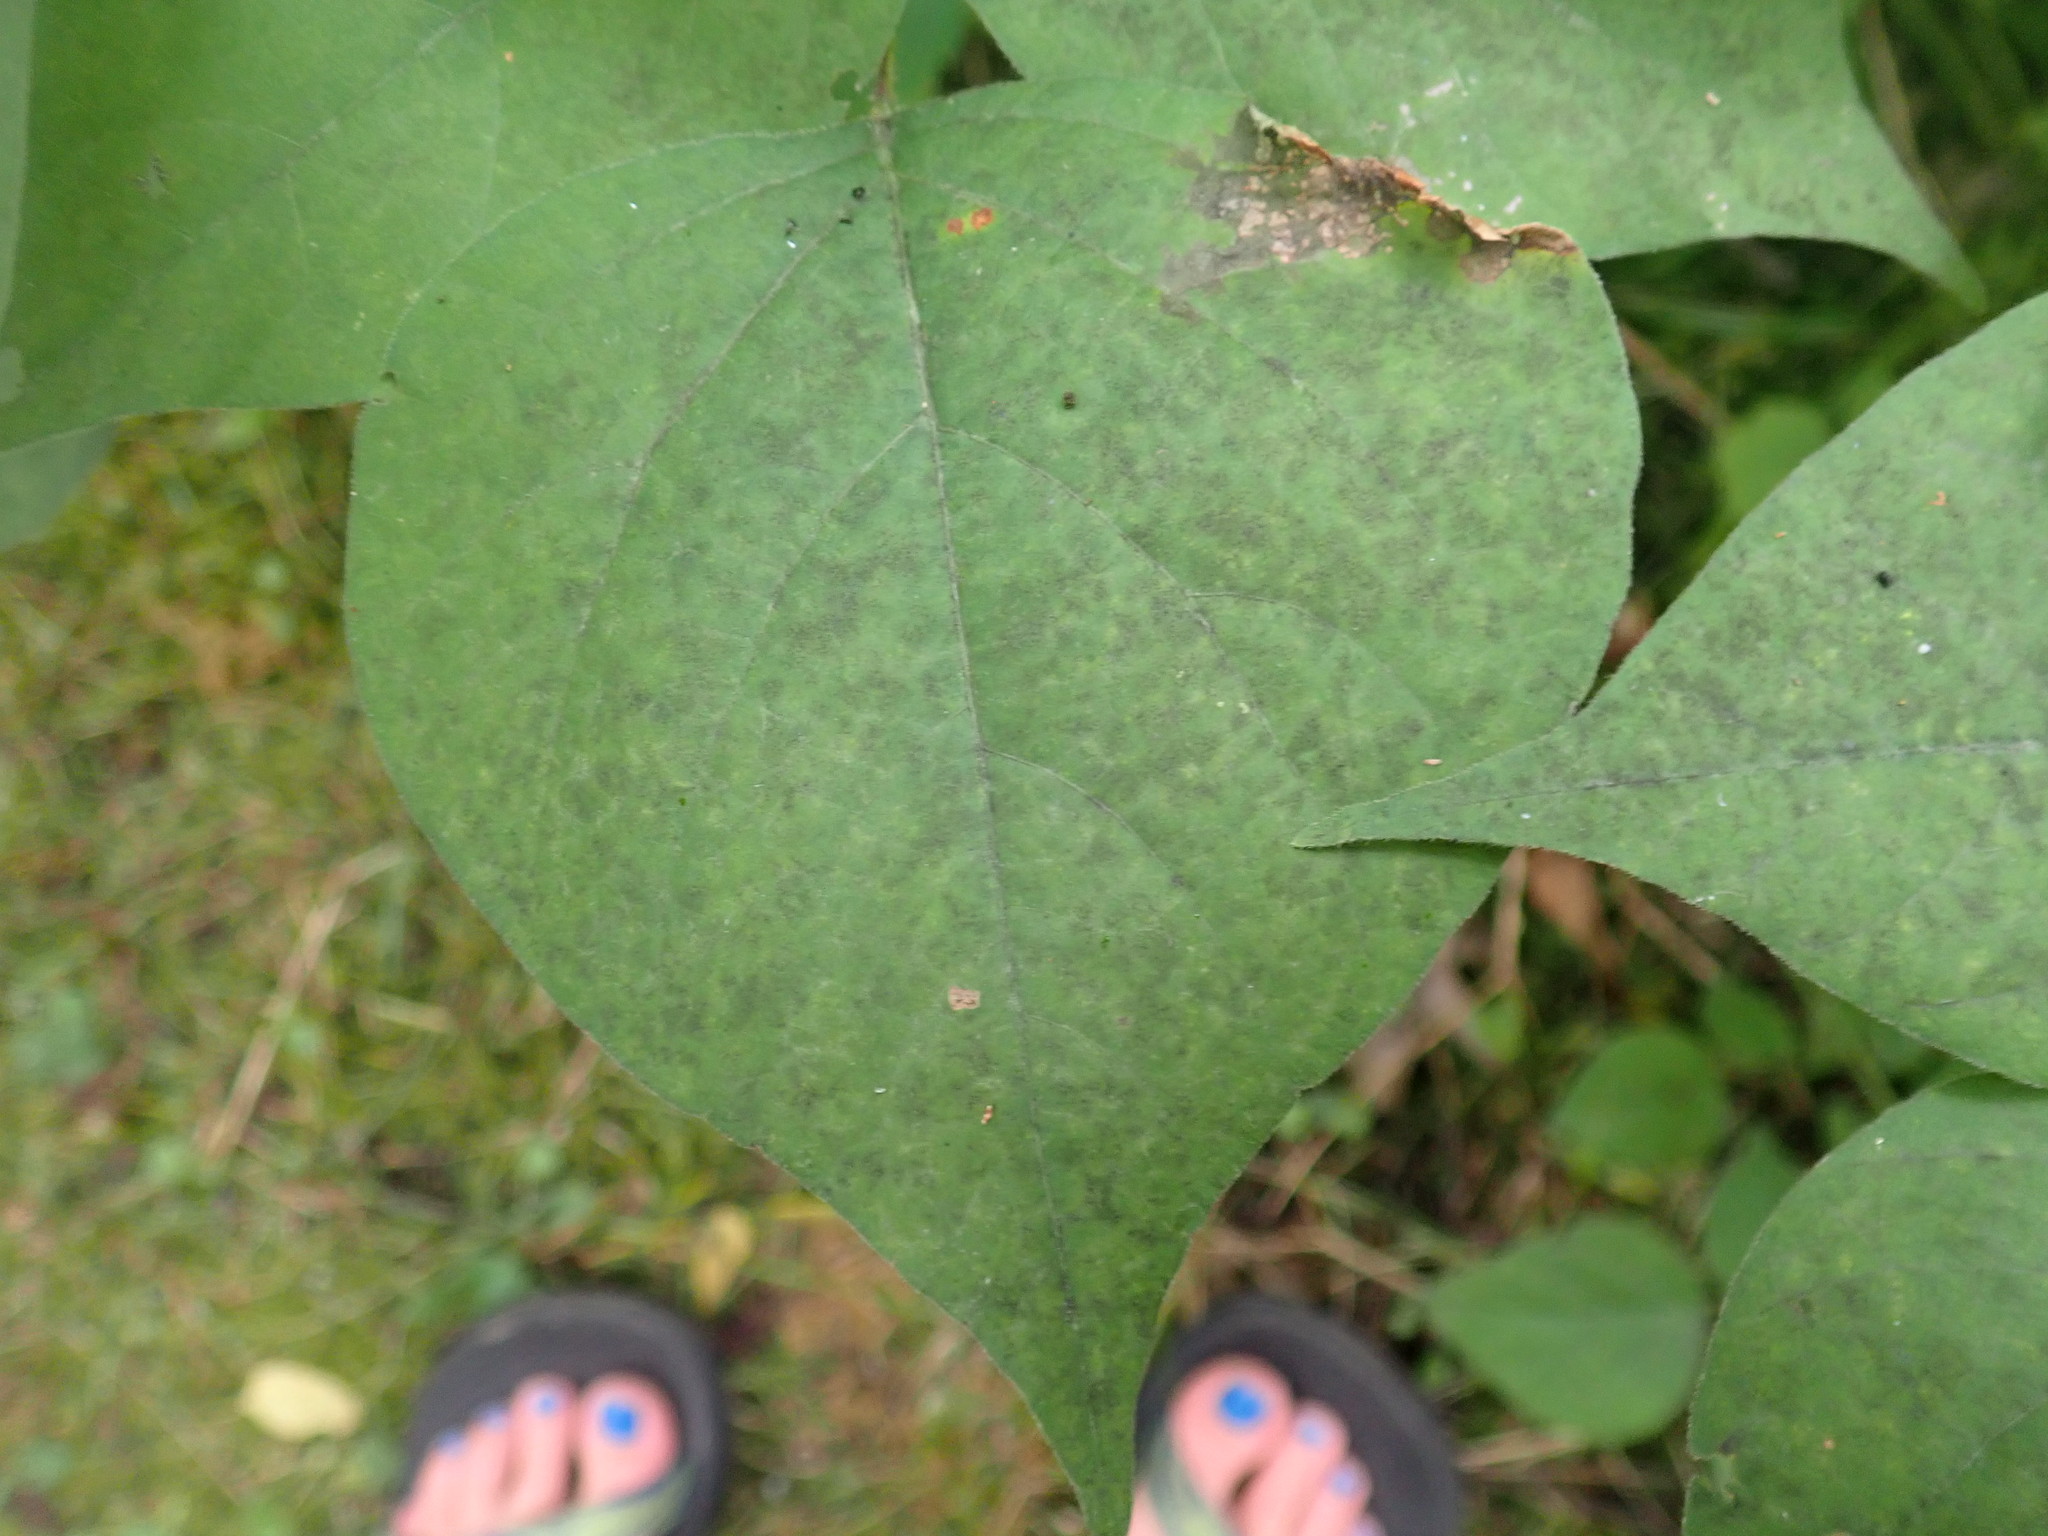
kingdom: Plantae
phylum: Tracheophyta
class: Magnoliopsida
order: Fabales
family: Fabaceae
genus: Hylodesmum
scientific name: Hylodesmum glutinosum
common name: Clustered-leaved tick-trefoil
